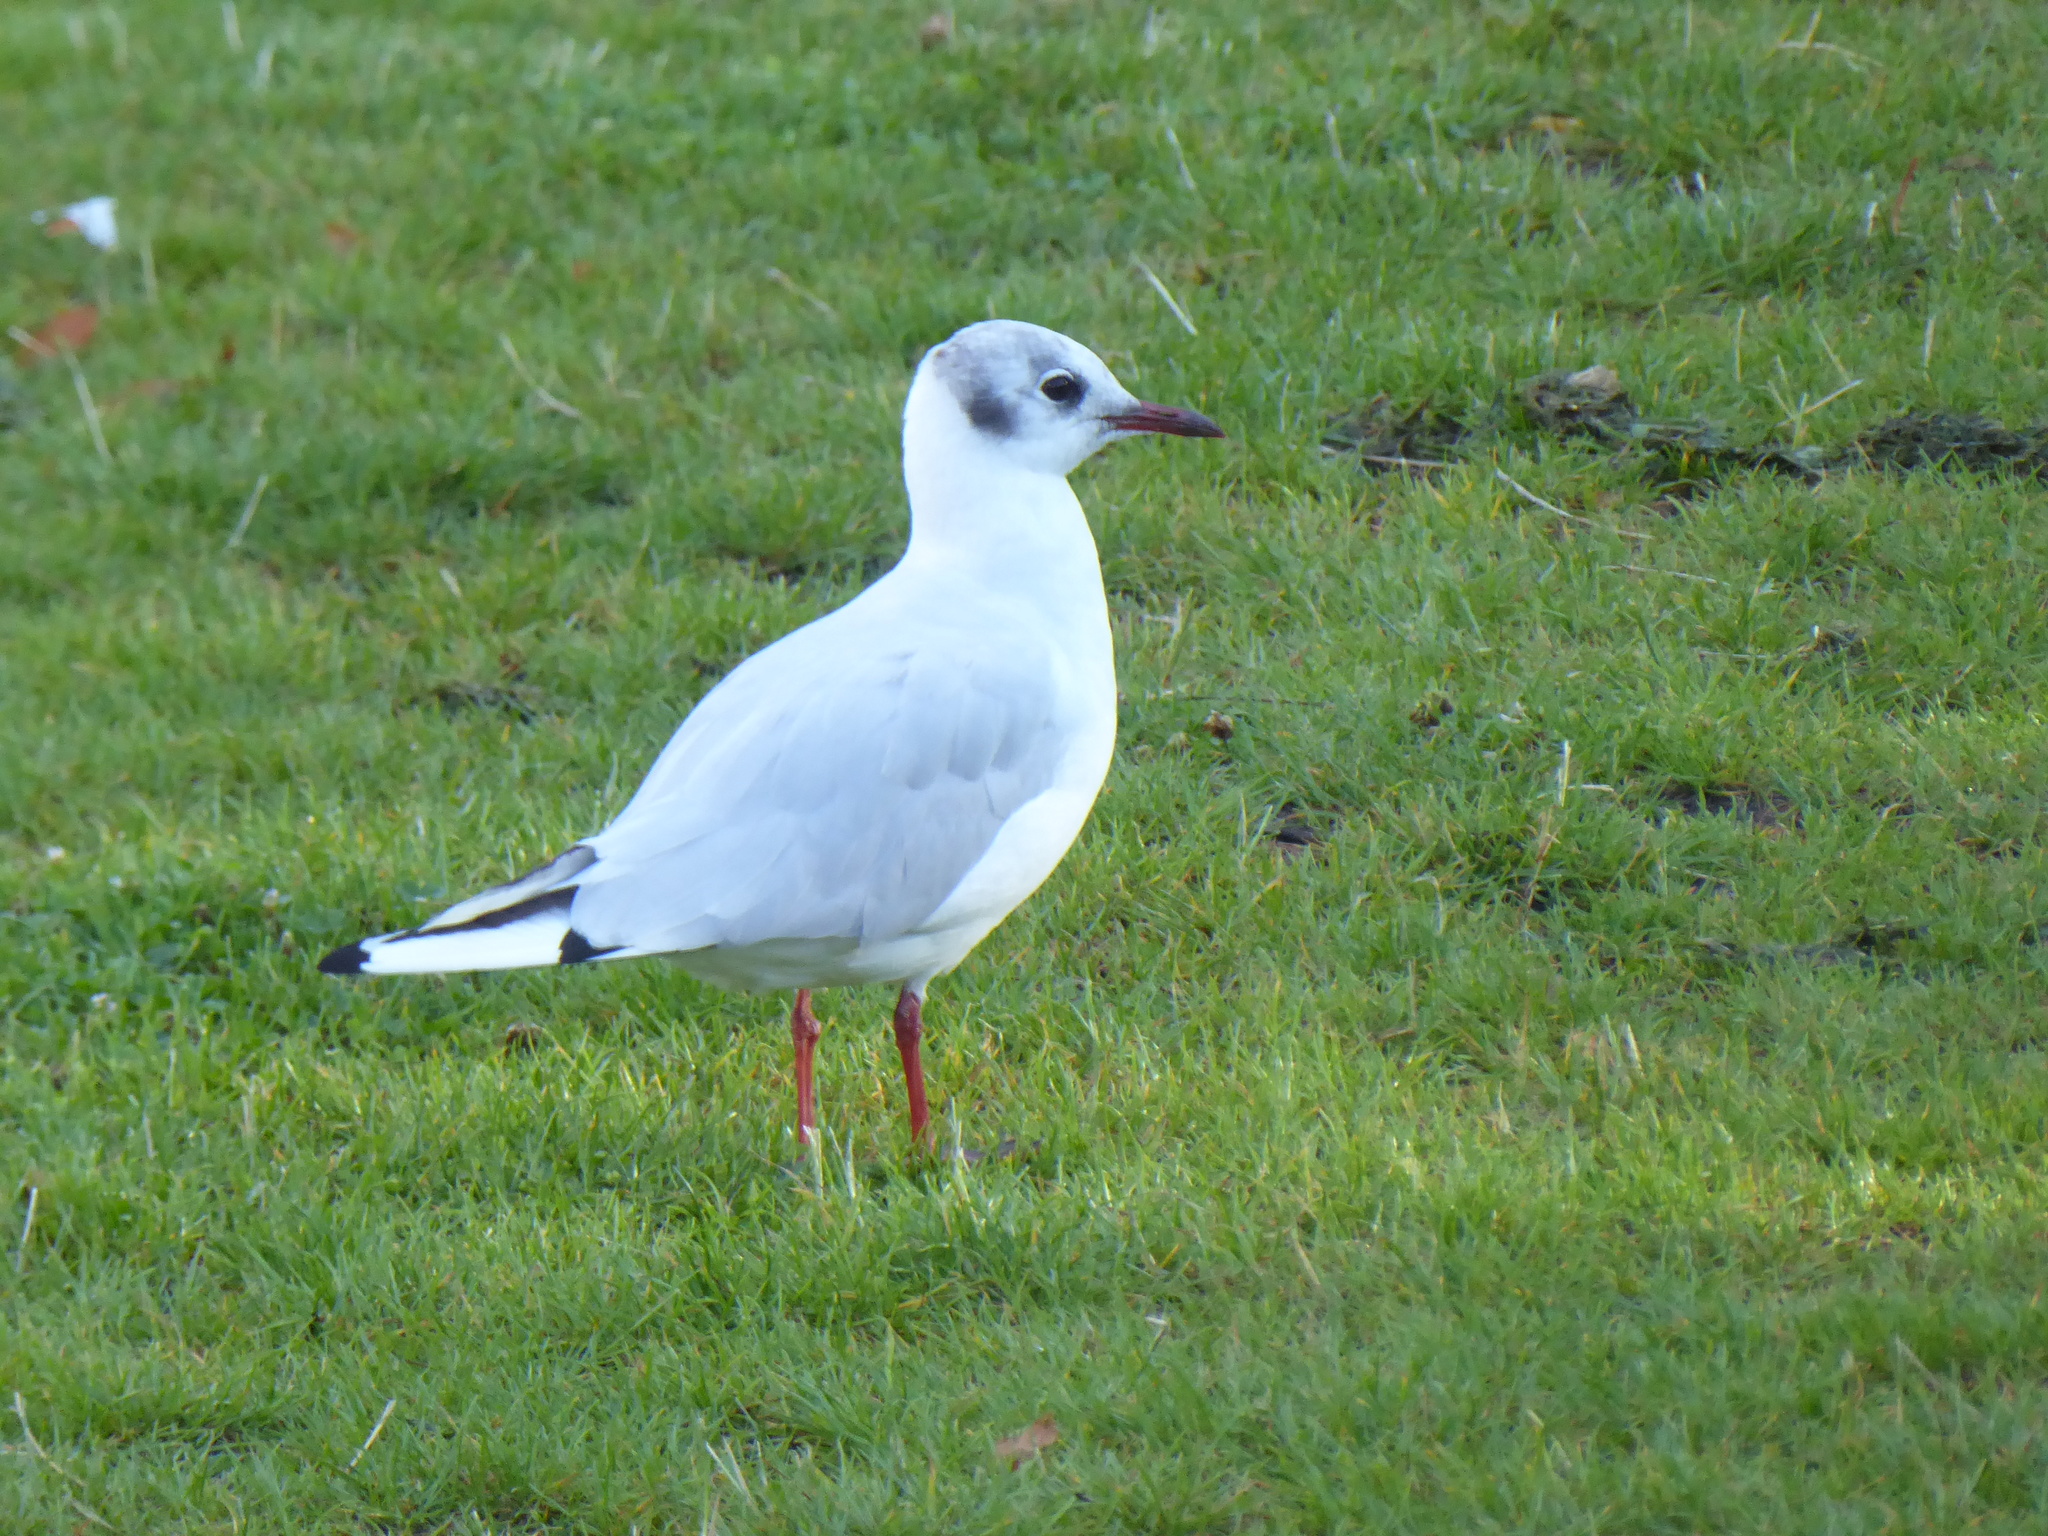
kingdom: Animalia
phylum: Chordata
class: Aves
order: Charadriiformes
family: Laridae
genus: Chroicocephalus
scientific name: Chroicocephalus ridibundus
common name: Black-headed gull
